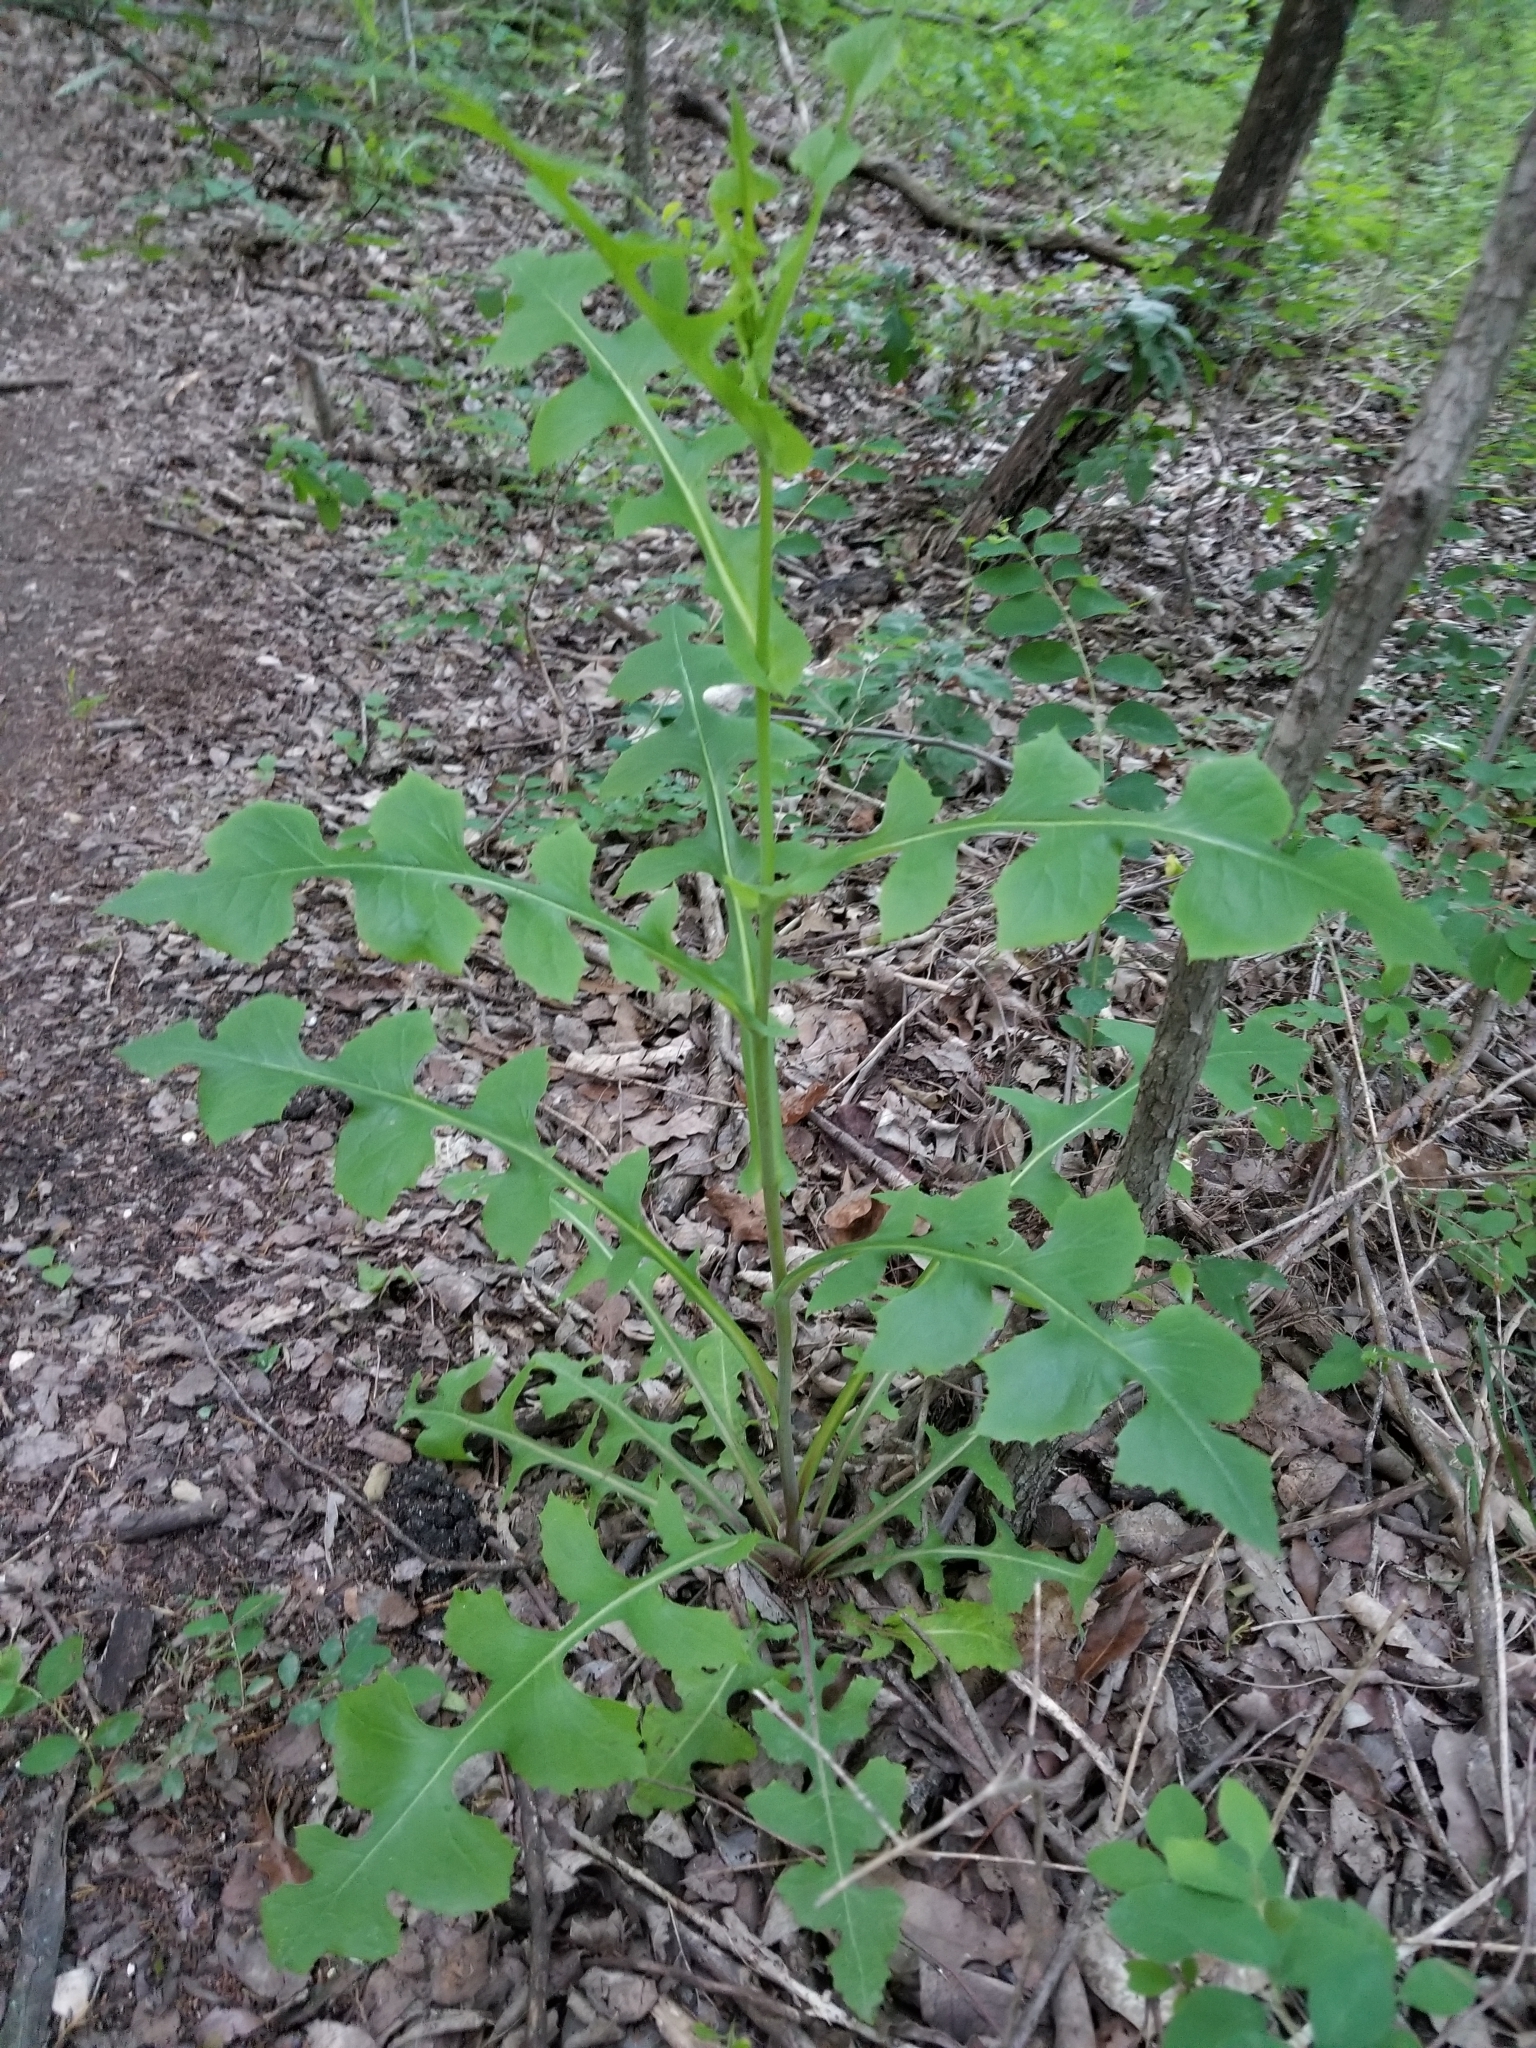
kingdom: Plantae
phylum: Tracheophyta
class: Magnoliopsida
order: Asterales
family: Asteraceae
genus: Lactuca
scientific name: Lactuca canadensis
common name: Canada lettuce
